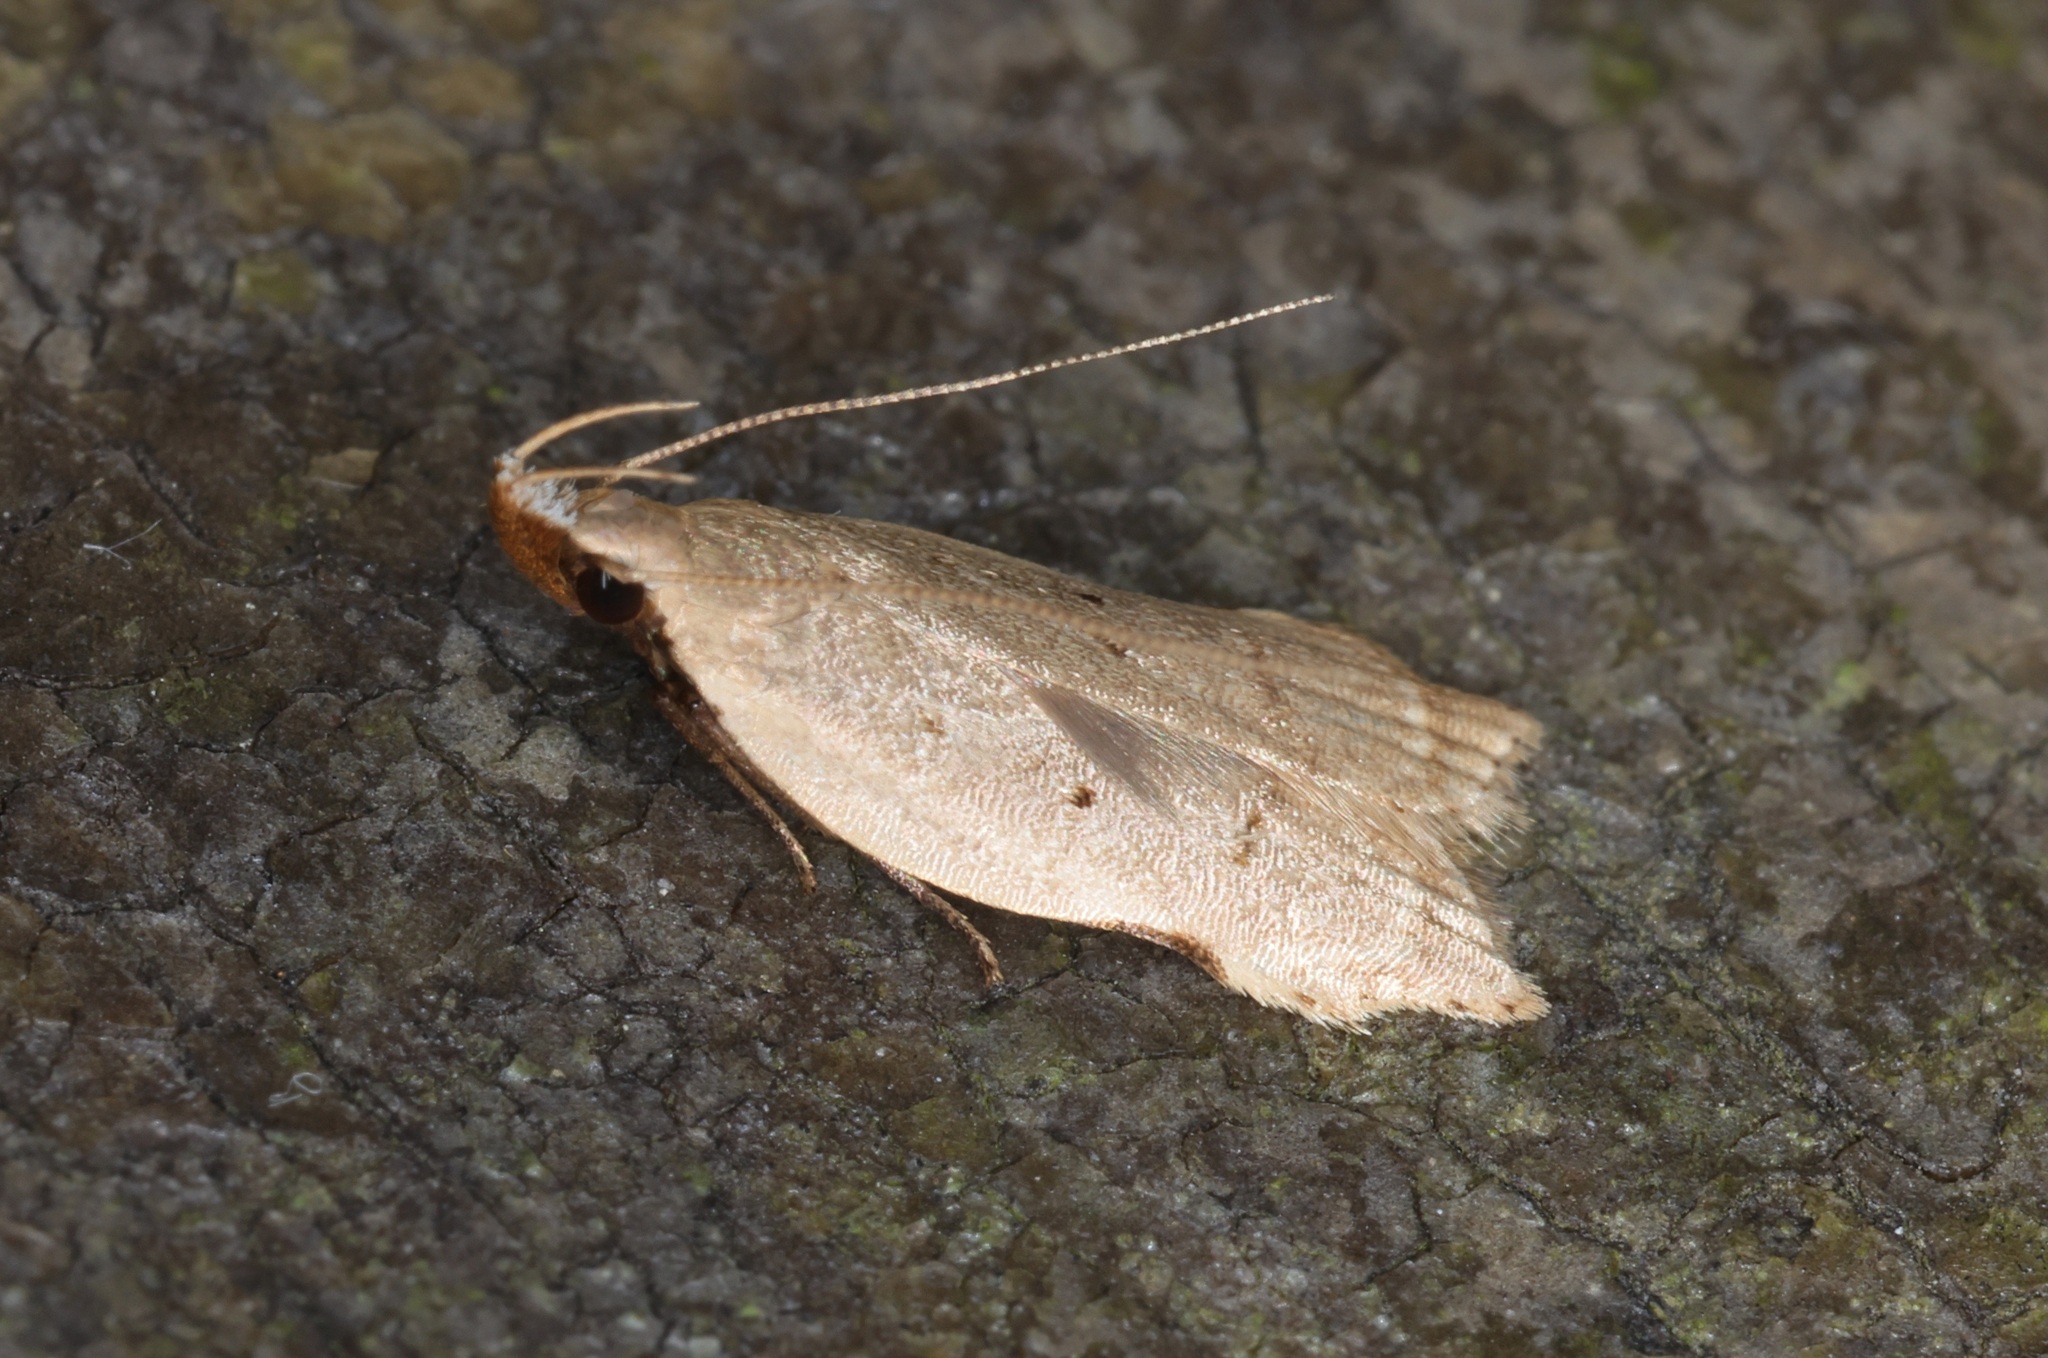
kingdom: Animalia
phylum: Arthropoda
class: Insecta
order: Lepidoptera
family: Gelechiidae
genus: Dichomeris
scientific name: Dichomeris simaoensis
